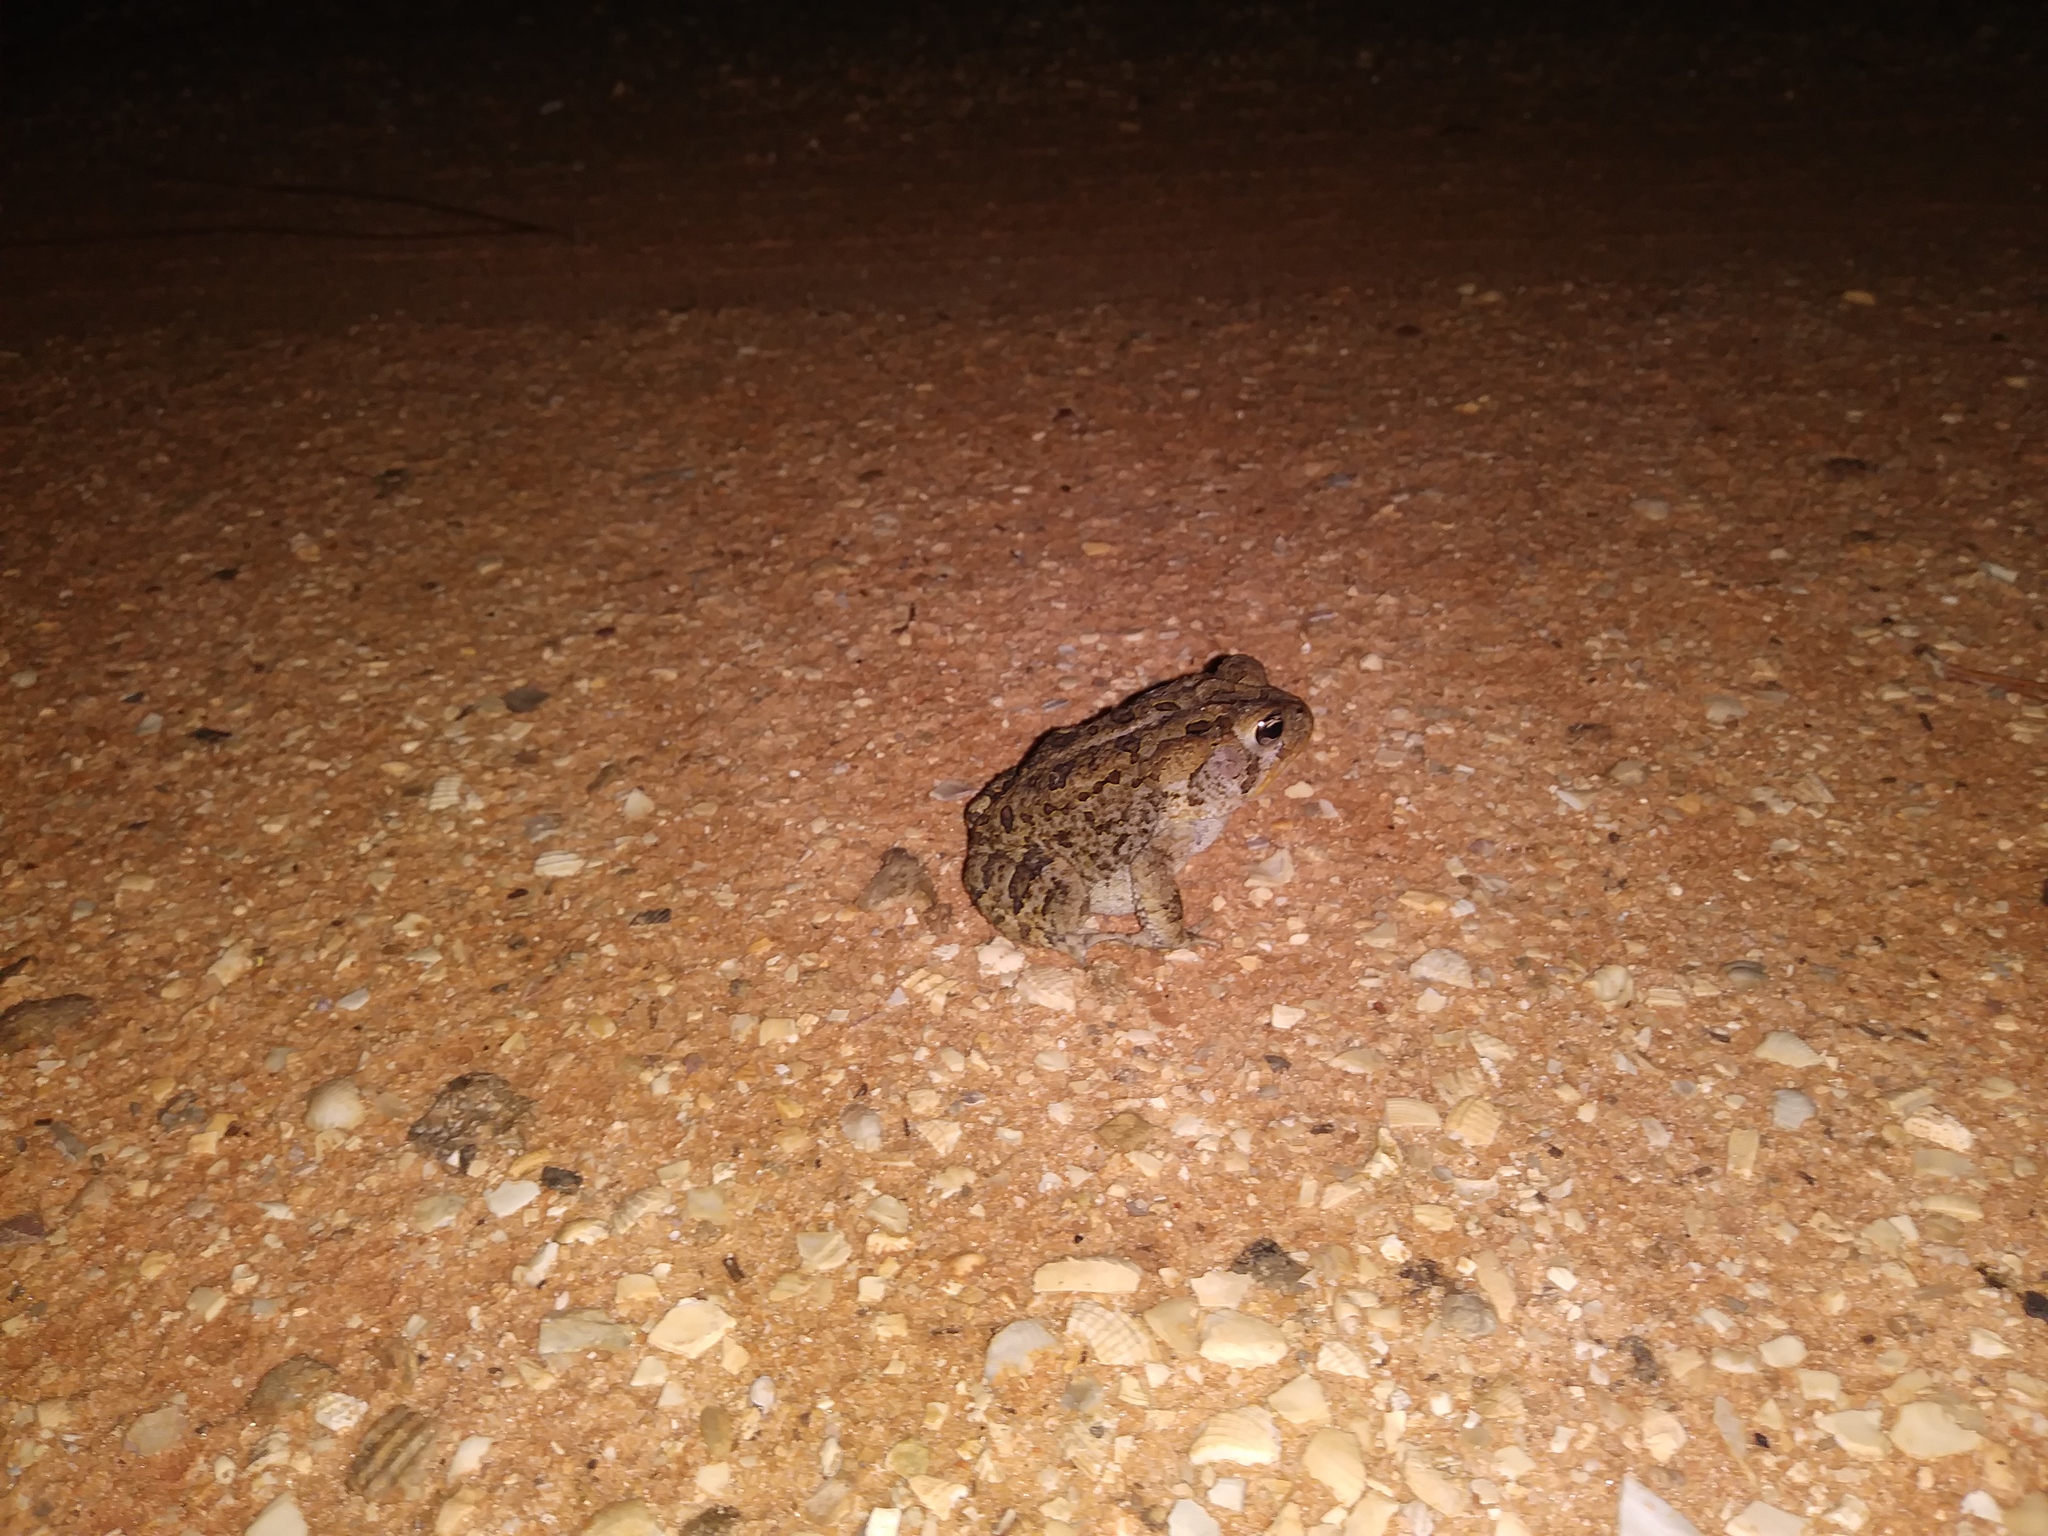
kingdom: Animalia
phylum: Chordata
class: Amphibia
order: Anura
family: Bufonidae
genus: Anaxyrus
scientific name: Anaxyrus terrestris
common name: Southern toad
